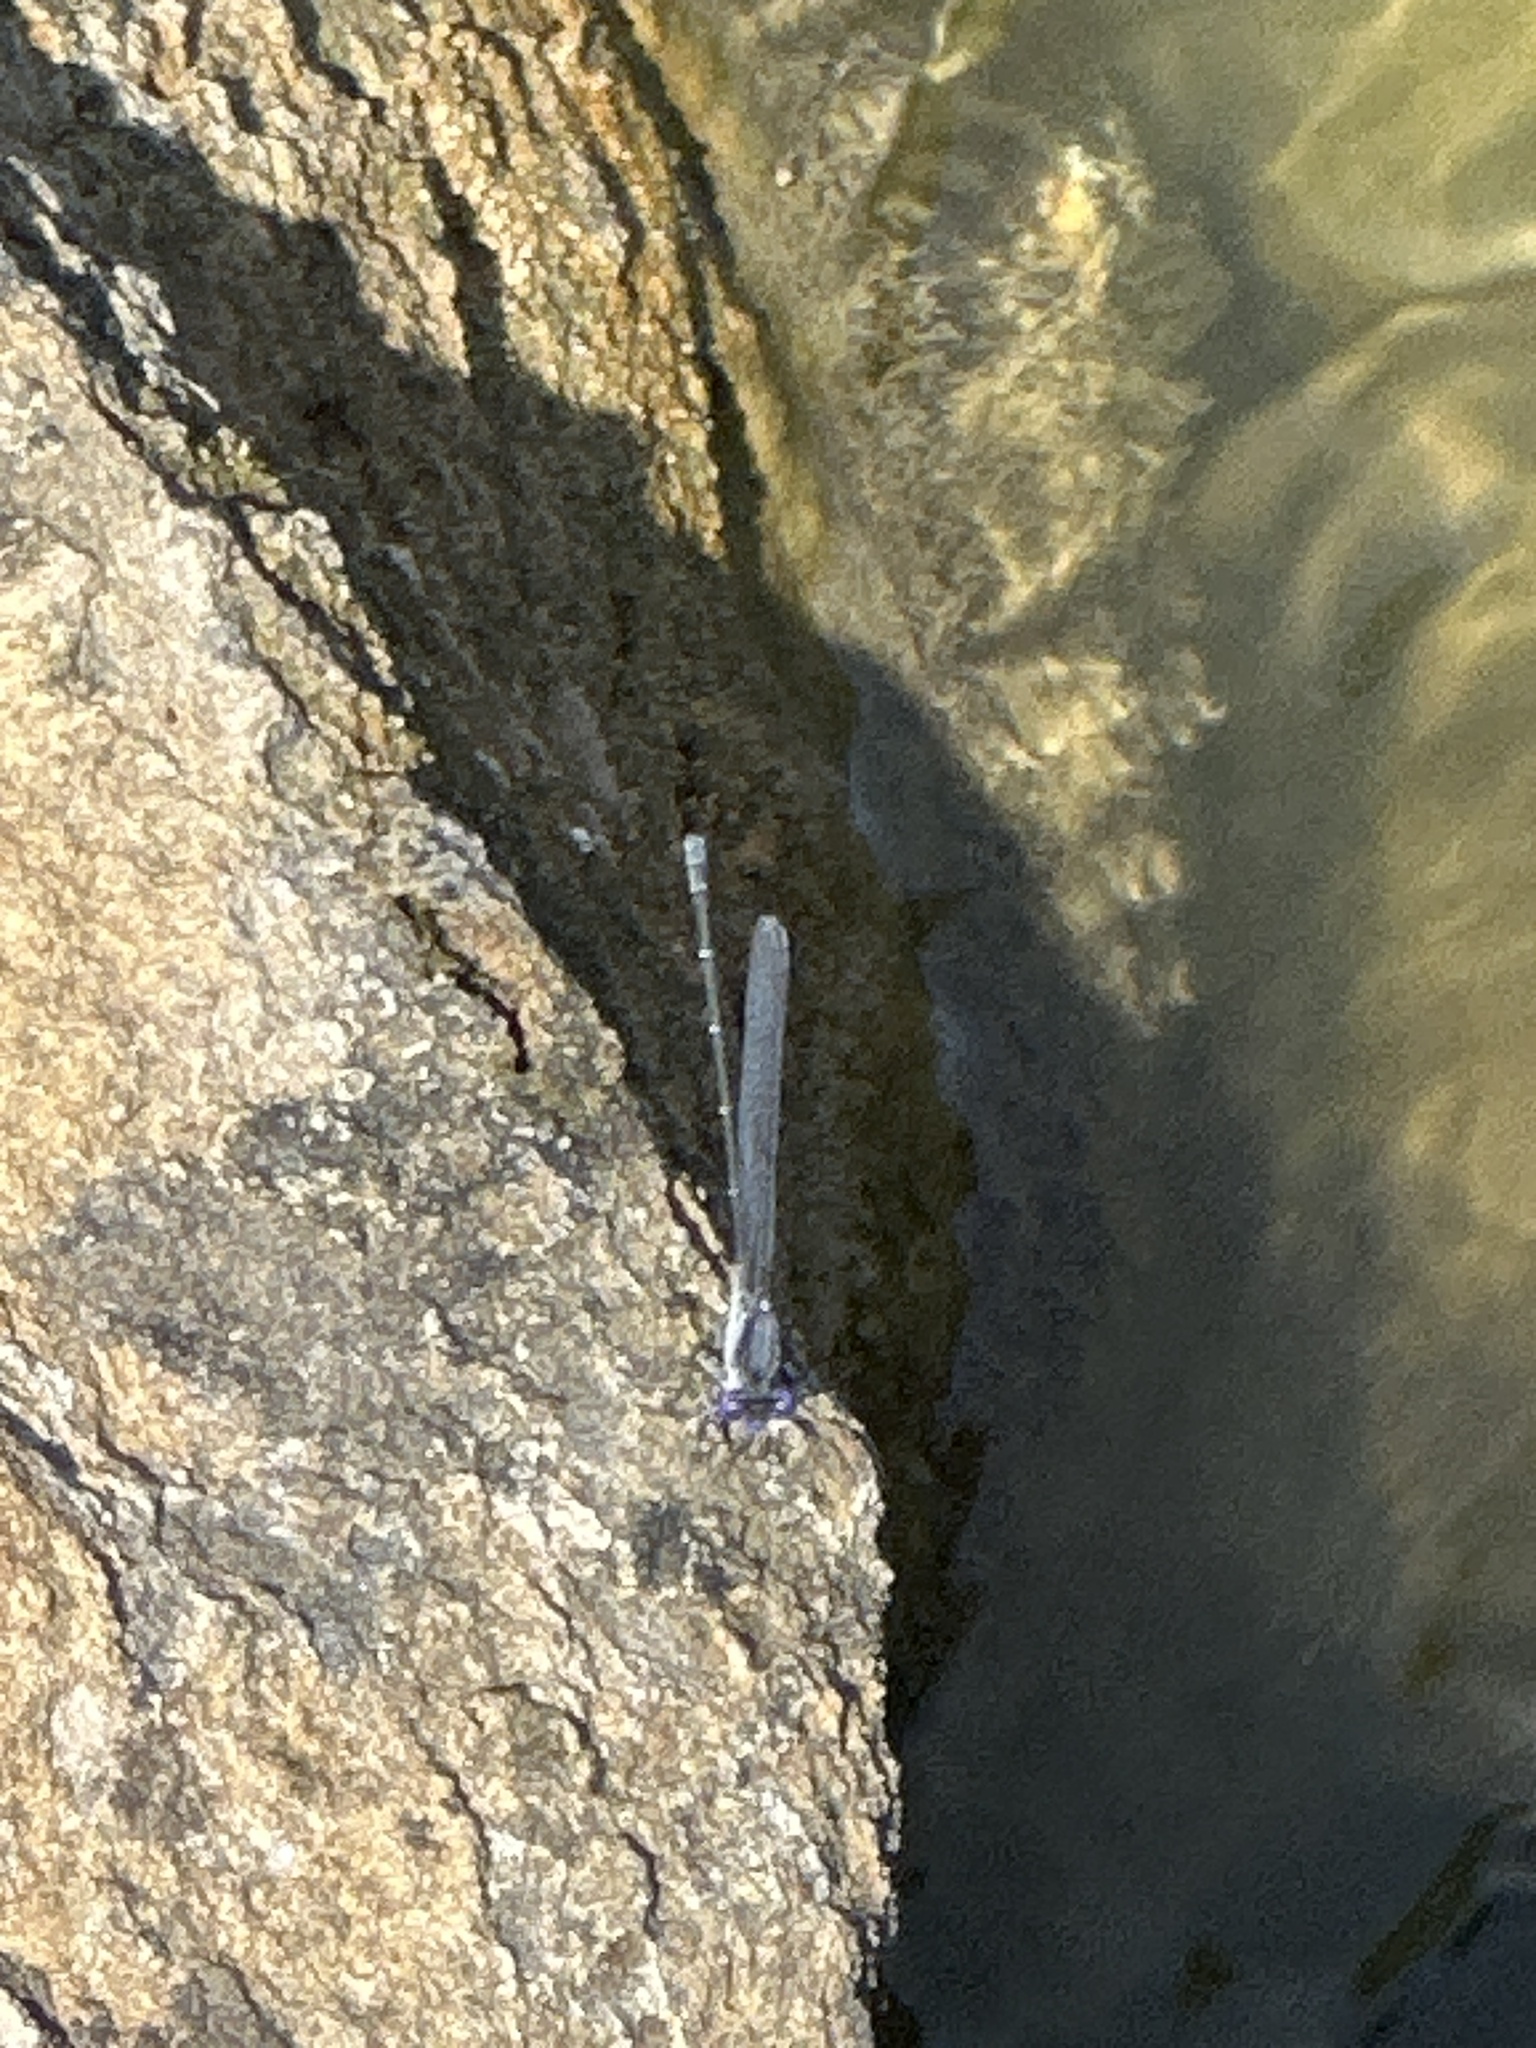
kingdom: Animalia
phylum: Arthropoda
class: Insecta
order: Odonata
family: Coenagrionidae
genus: Argia
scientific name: Argia translata
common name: Dusky dancer
